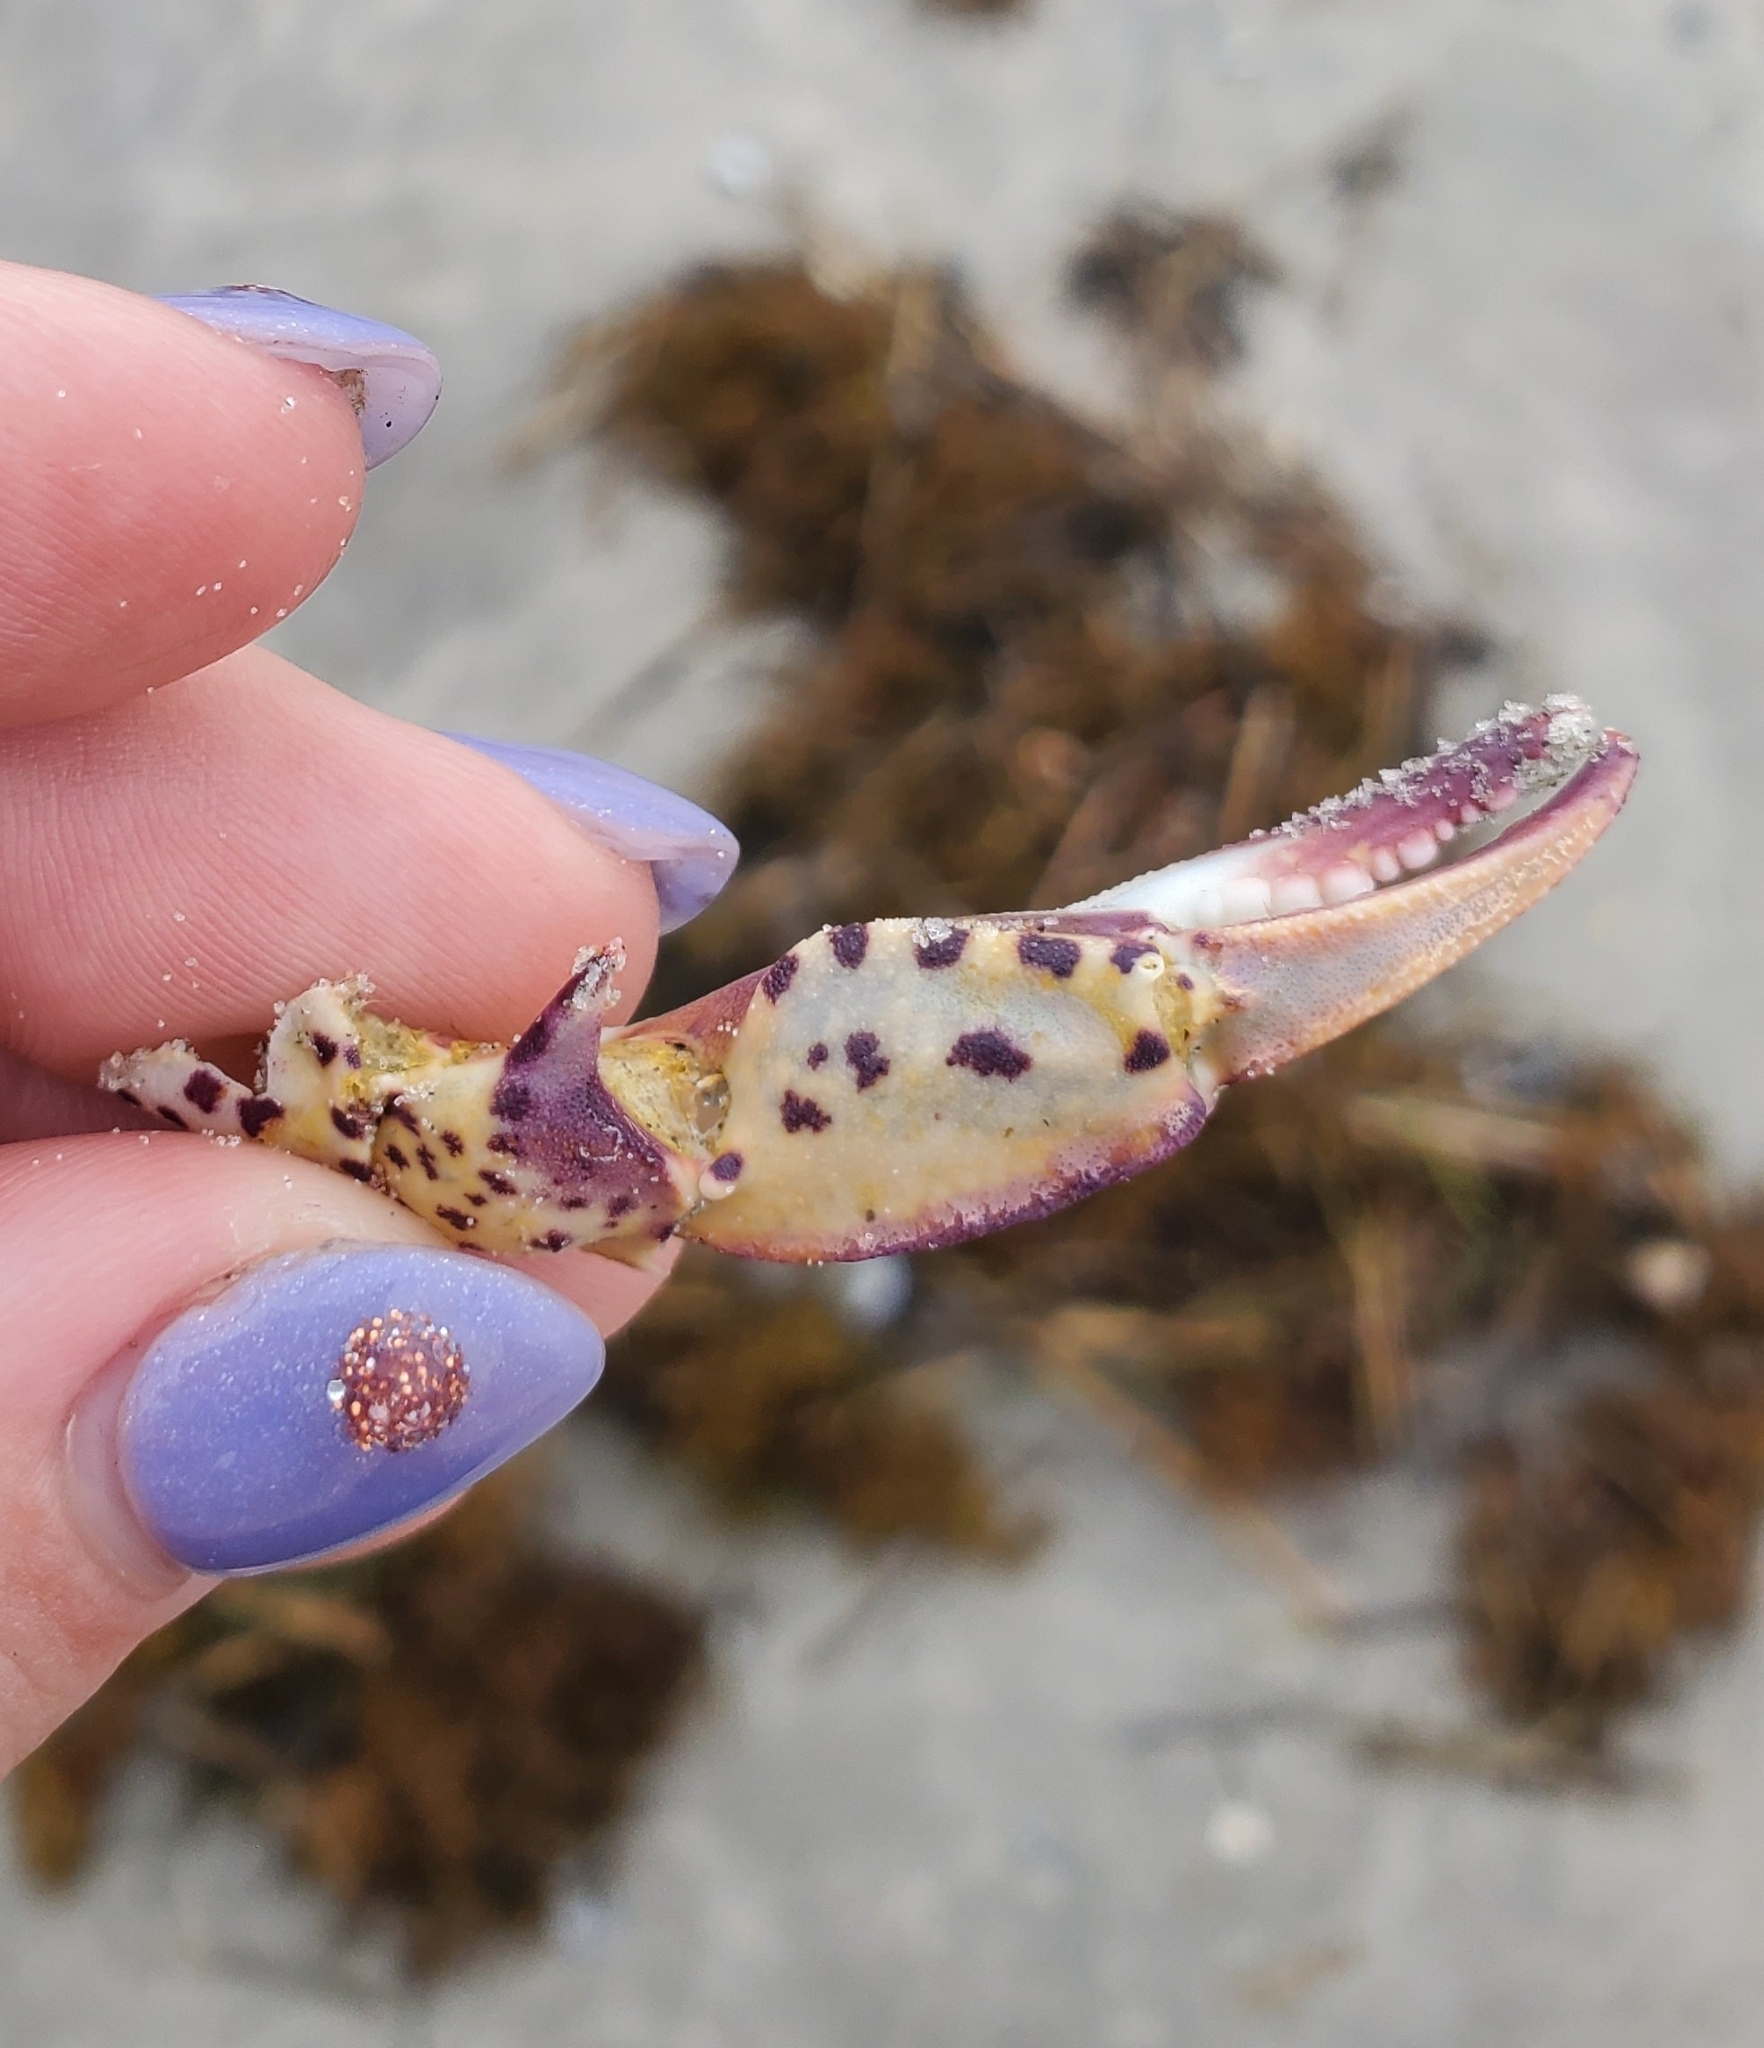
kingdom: Animalia
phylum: Arthropoda
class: Malacostraca
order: Decapoda
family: Ovalipidae
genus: Ovalipes
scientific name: Ovalipes ocellatus
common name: Lady crab
